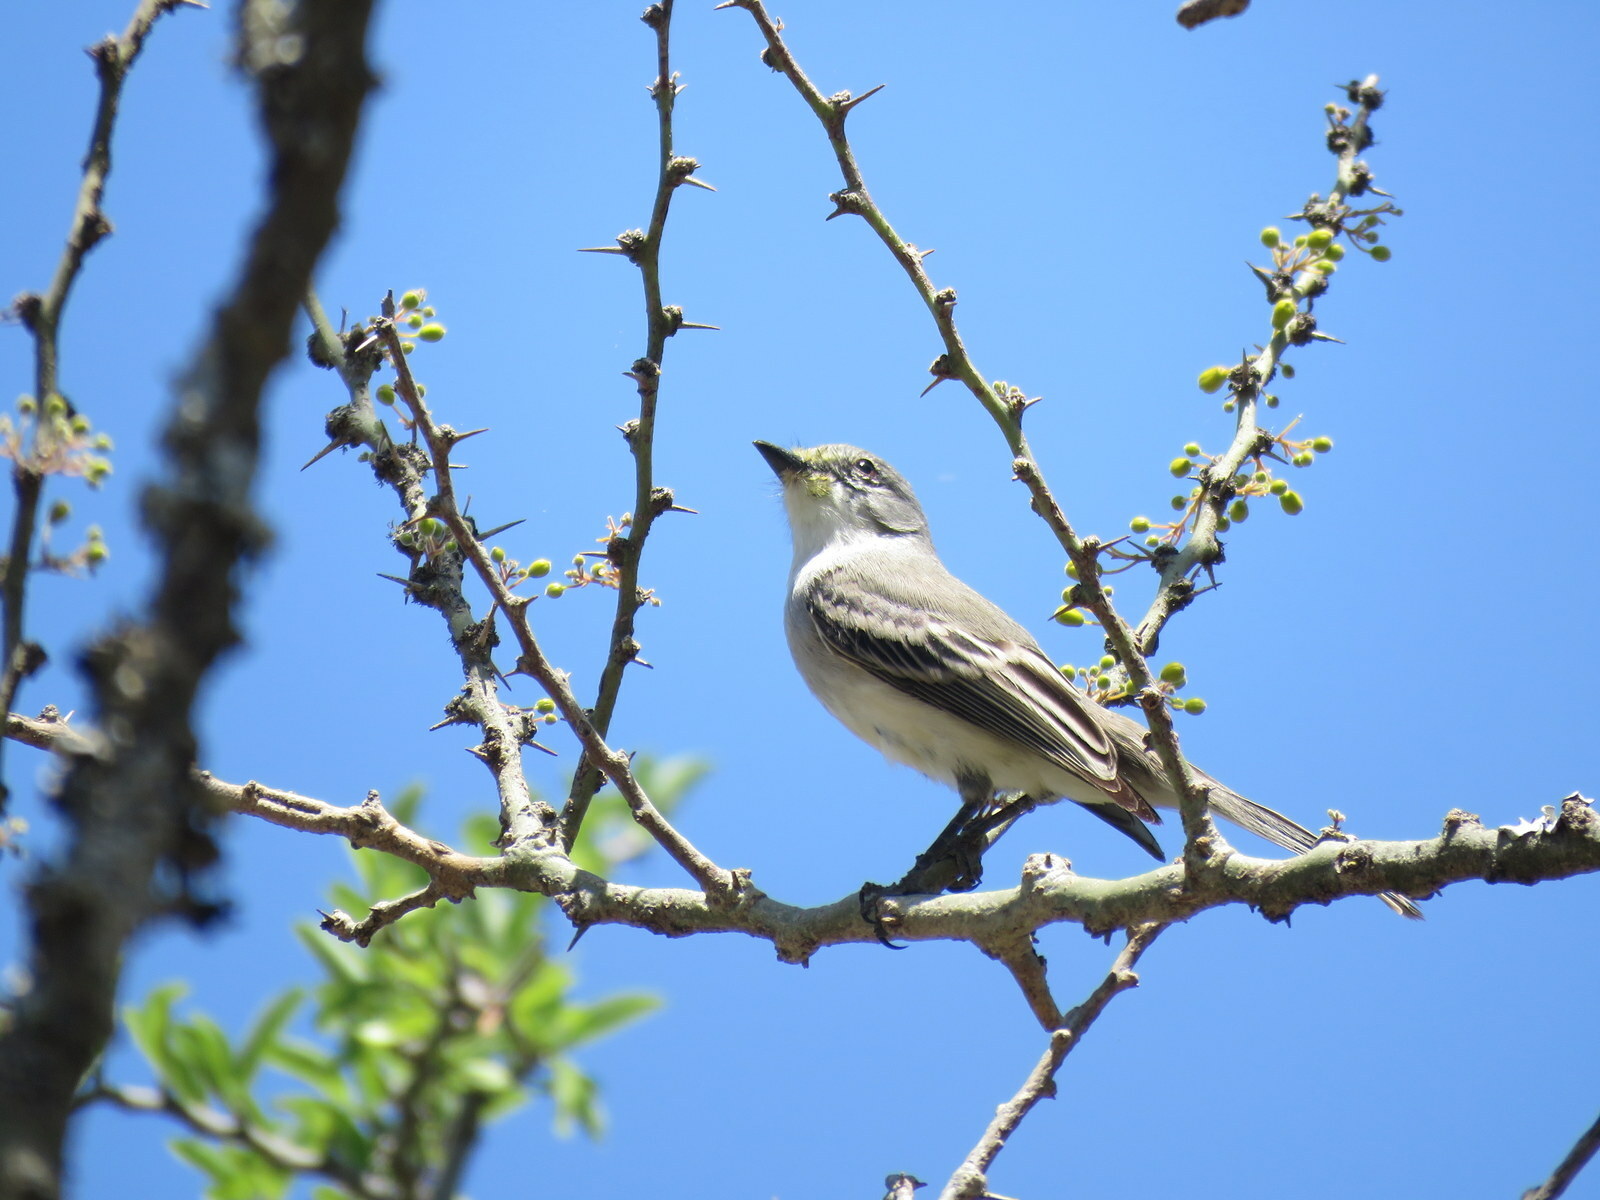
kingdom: Animalia
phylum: Chordata
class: Aves
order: Passeriformes
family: Tyrannidae
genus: Suiriri
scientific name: Suiriri suiriri
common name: Suiriri flycatcher
